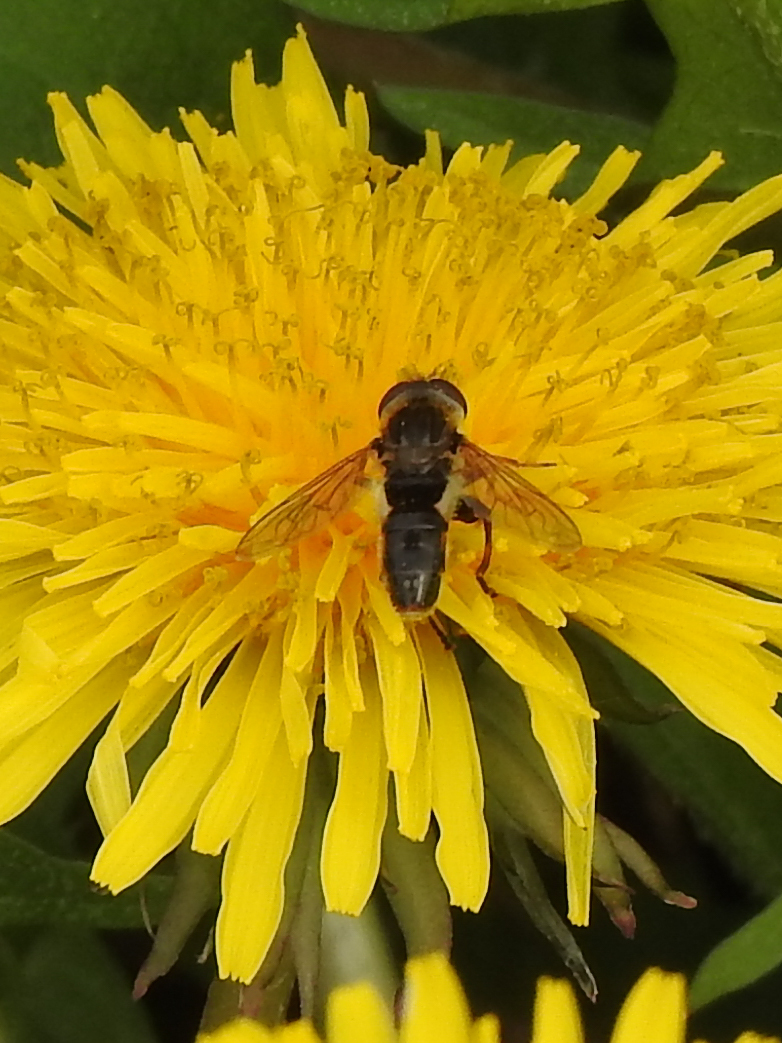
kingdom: Animalia
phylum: Arthropoda
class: Insecta
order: Diptera
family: Syrphidae
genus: Anasimyia
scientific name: Anasimyia bilinearis
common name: Two-lined swamp fly
